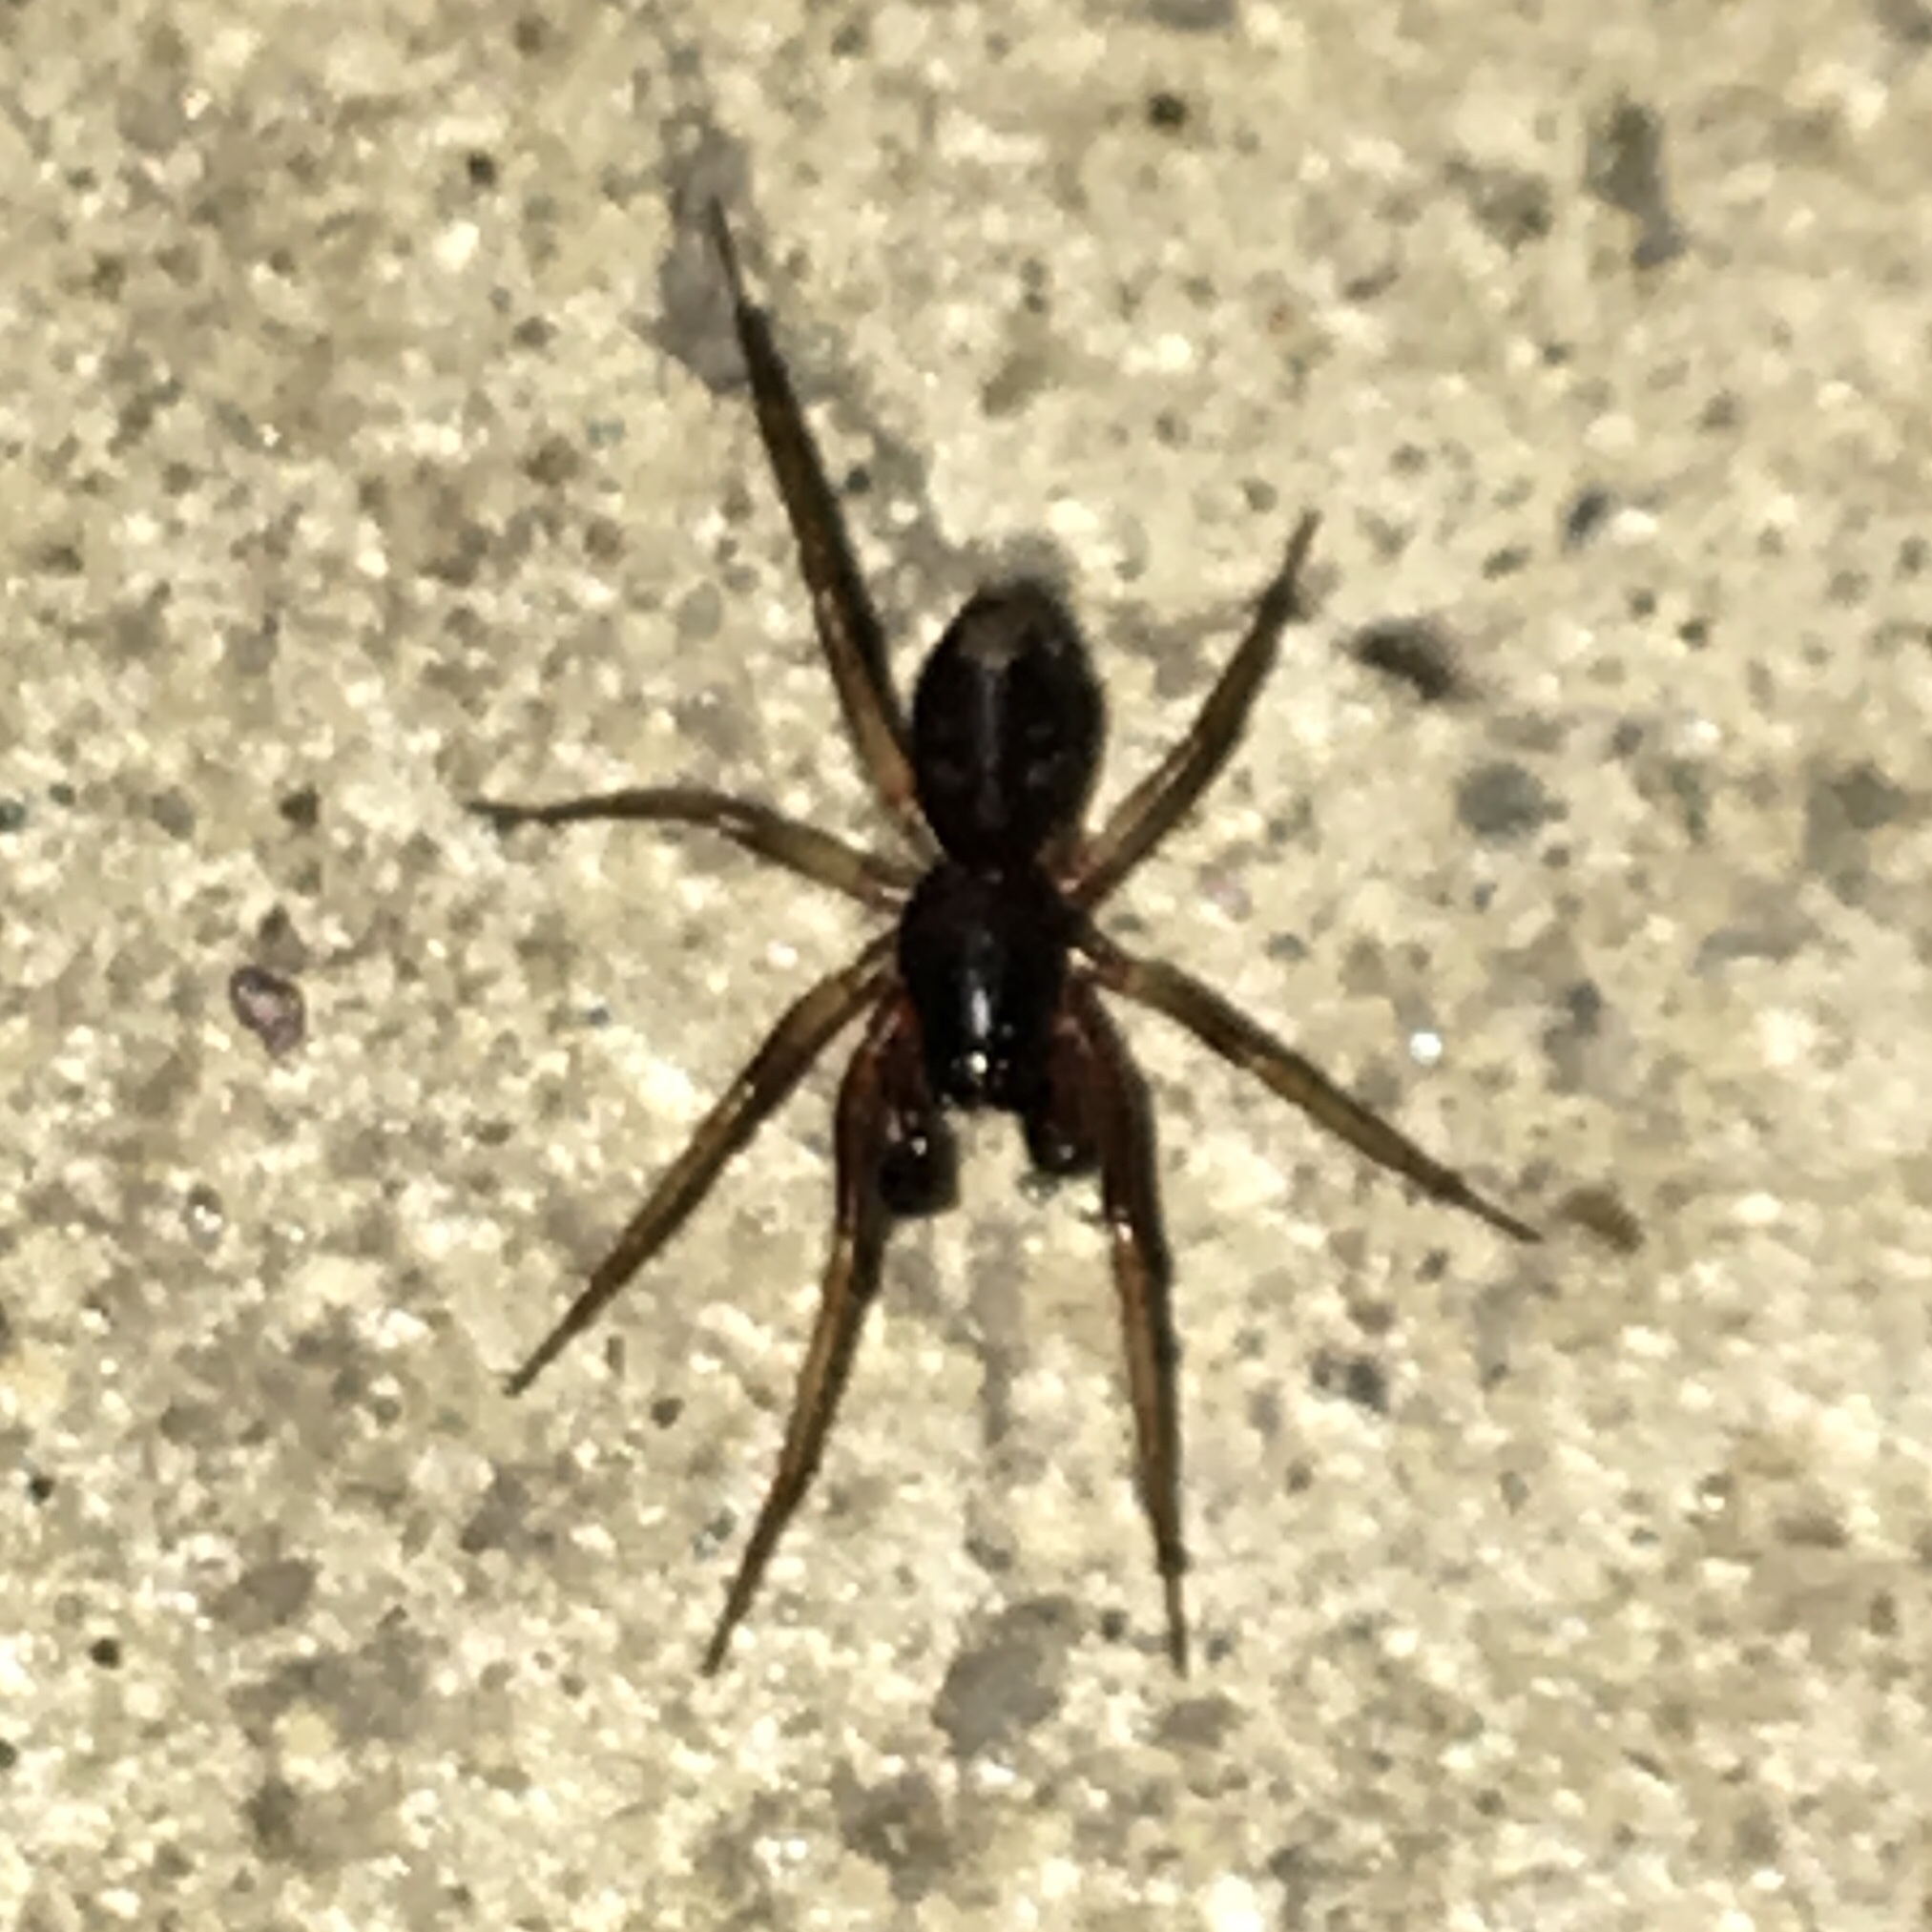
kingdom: Animalia
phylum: Arthropoda
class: Arachnida
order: Araneae
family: Corinnidae
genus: Falconina
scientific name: Falconina gracilis
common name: Antmimic spider
